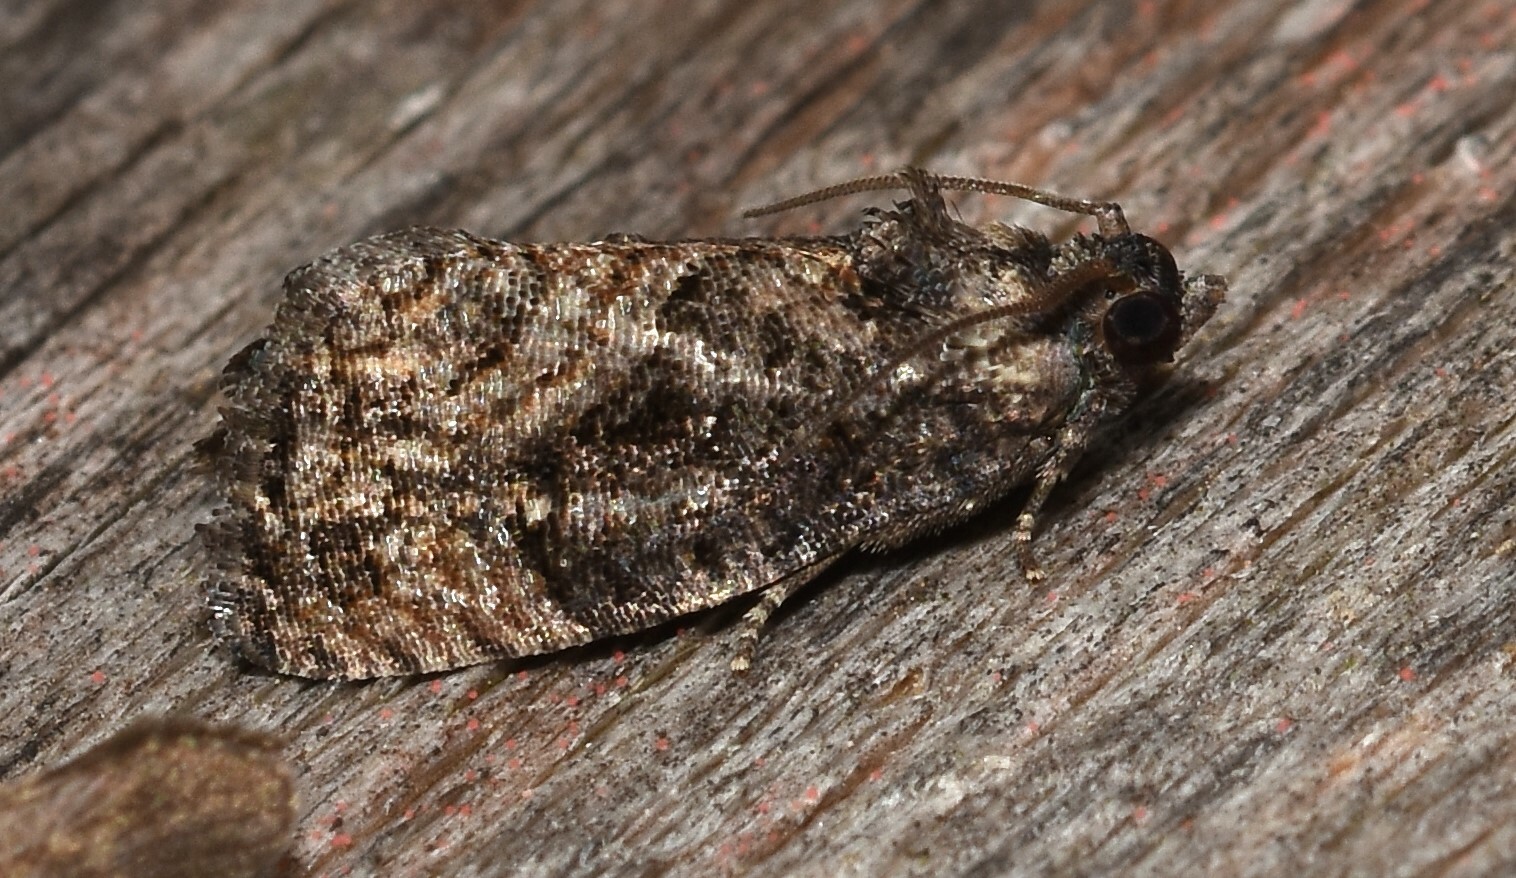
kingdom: Animalia
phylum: Arthropoda
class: Insecta
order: Lepidoptera
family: Tortricidae
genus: Gymnandrosoma
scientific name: Gymnandrosoma punctidiscanum
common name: Dotted ecdytolopha moth
